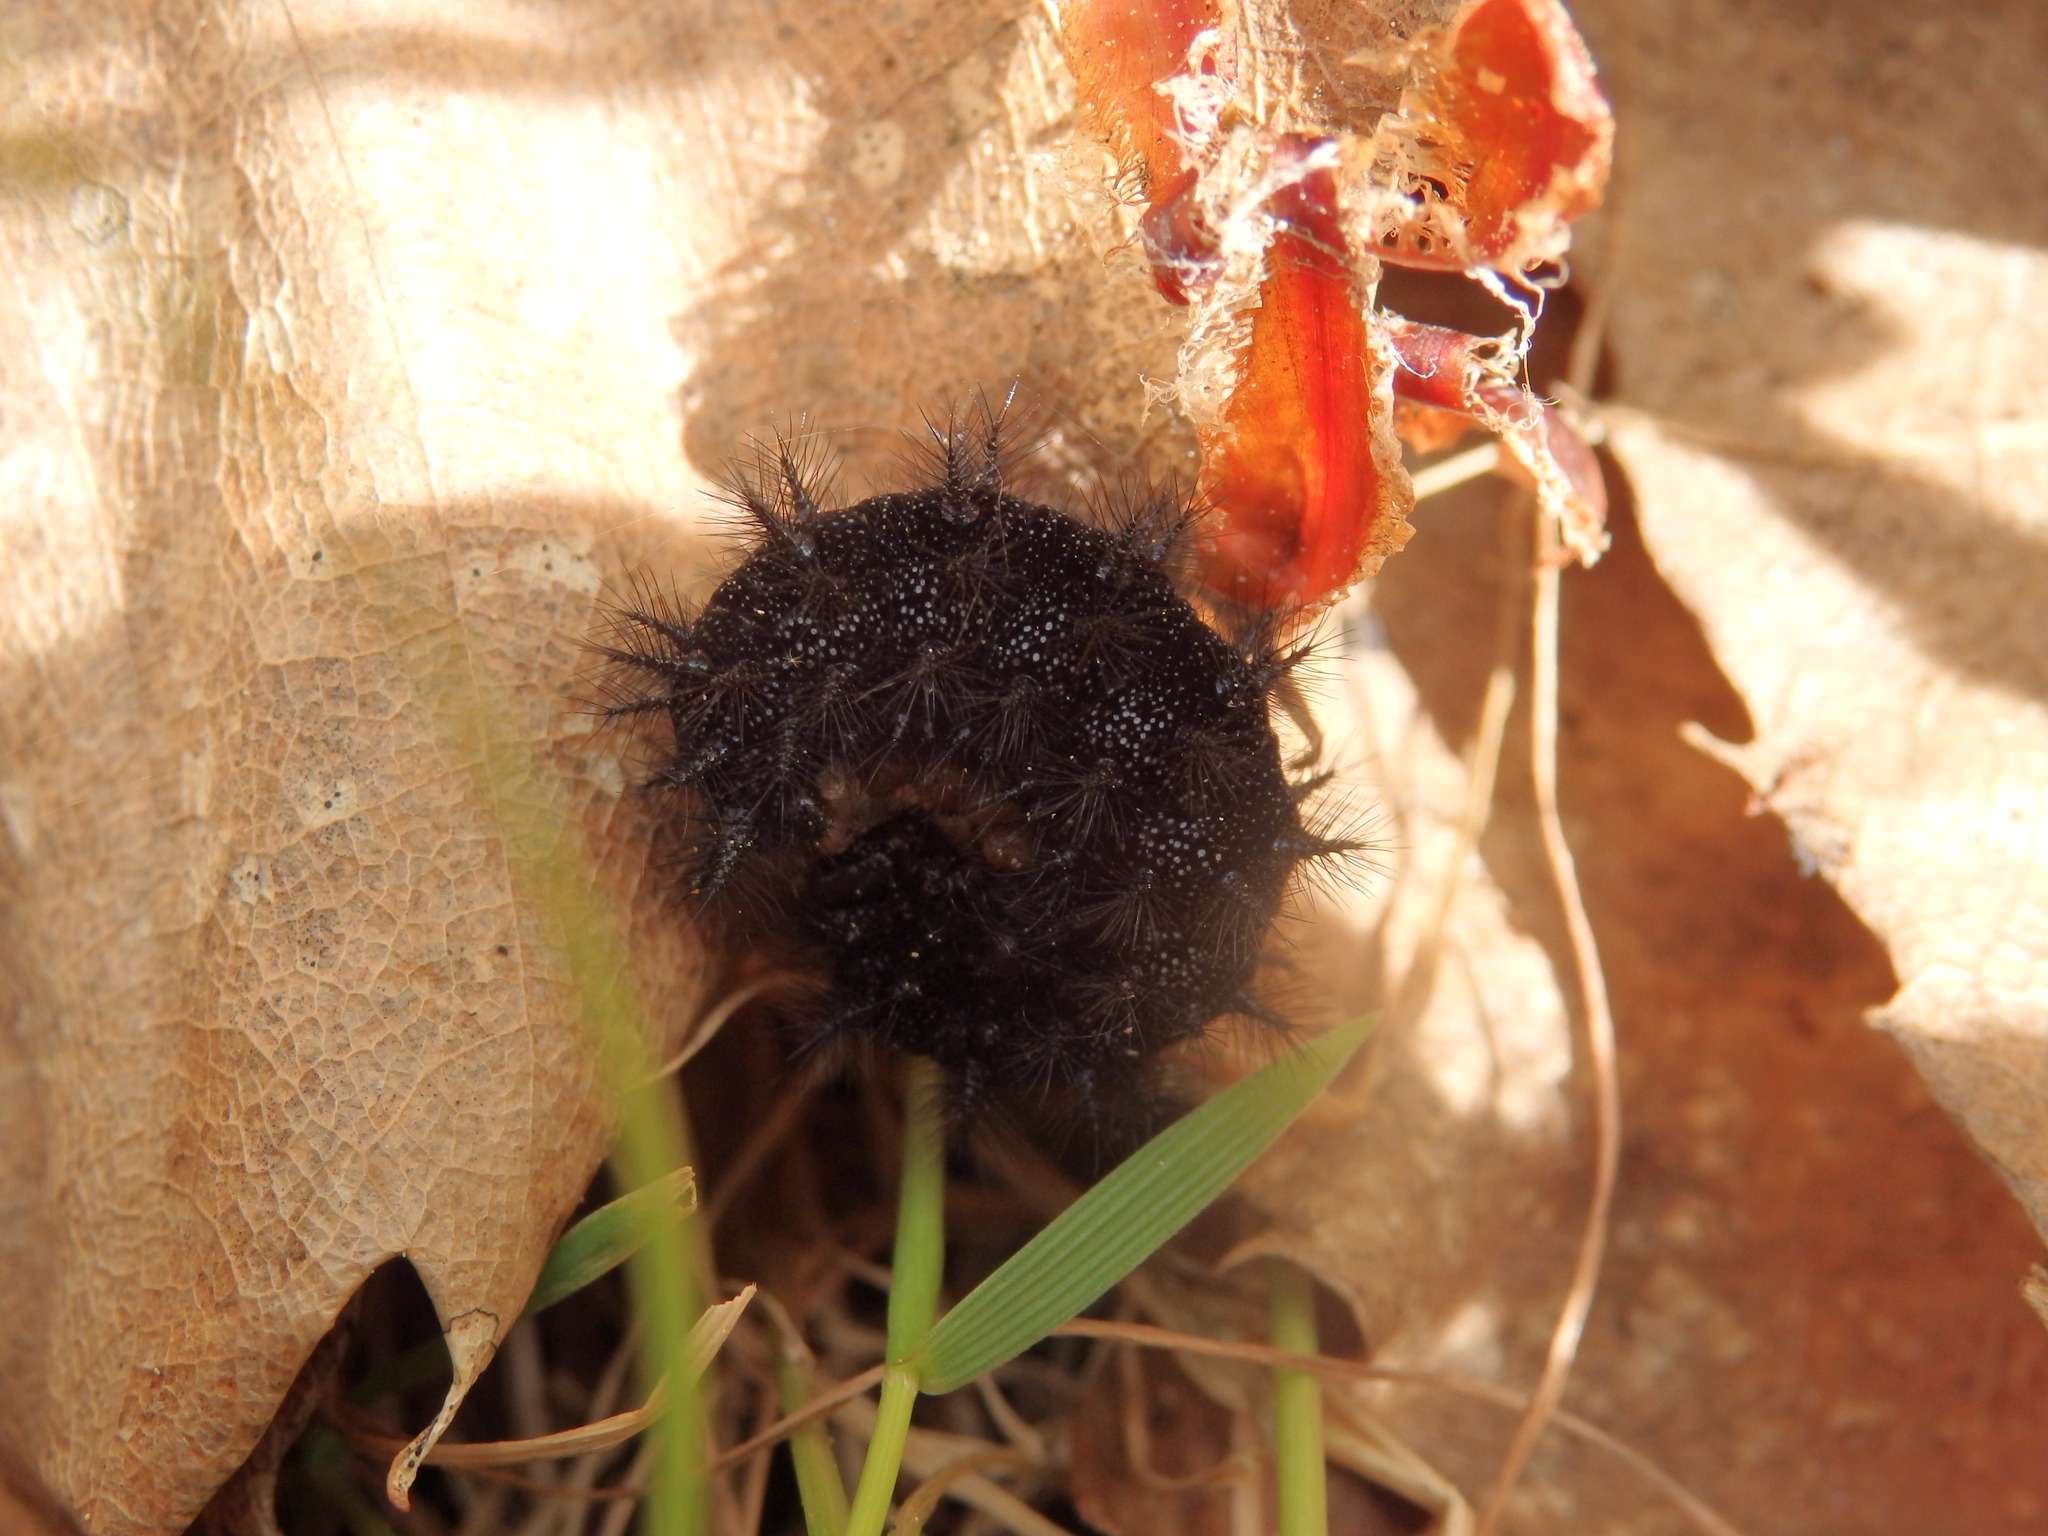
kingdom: Animalia
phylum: Arthropoda
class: Insecta
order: Lepidoptera
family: Nymphalidae
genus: Euphydryas
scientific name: Euphydryas aurinia
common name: Marsh fritillary
